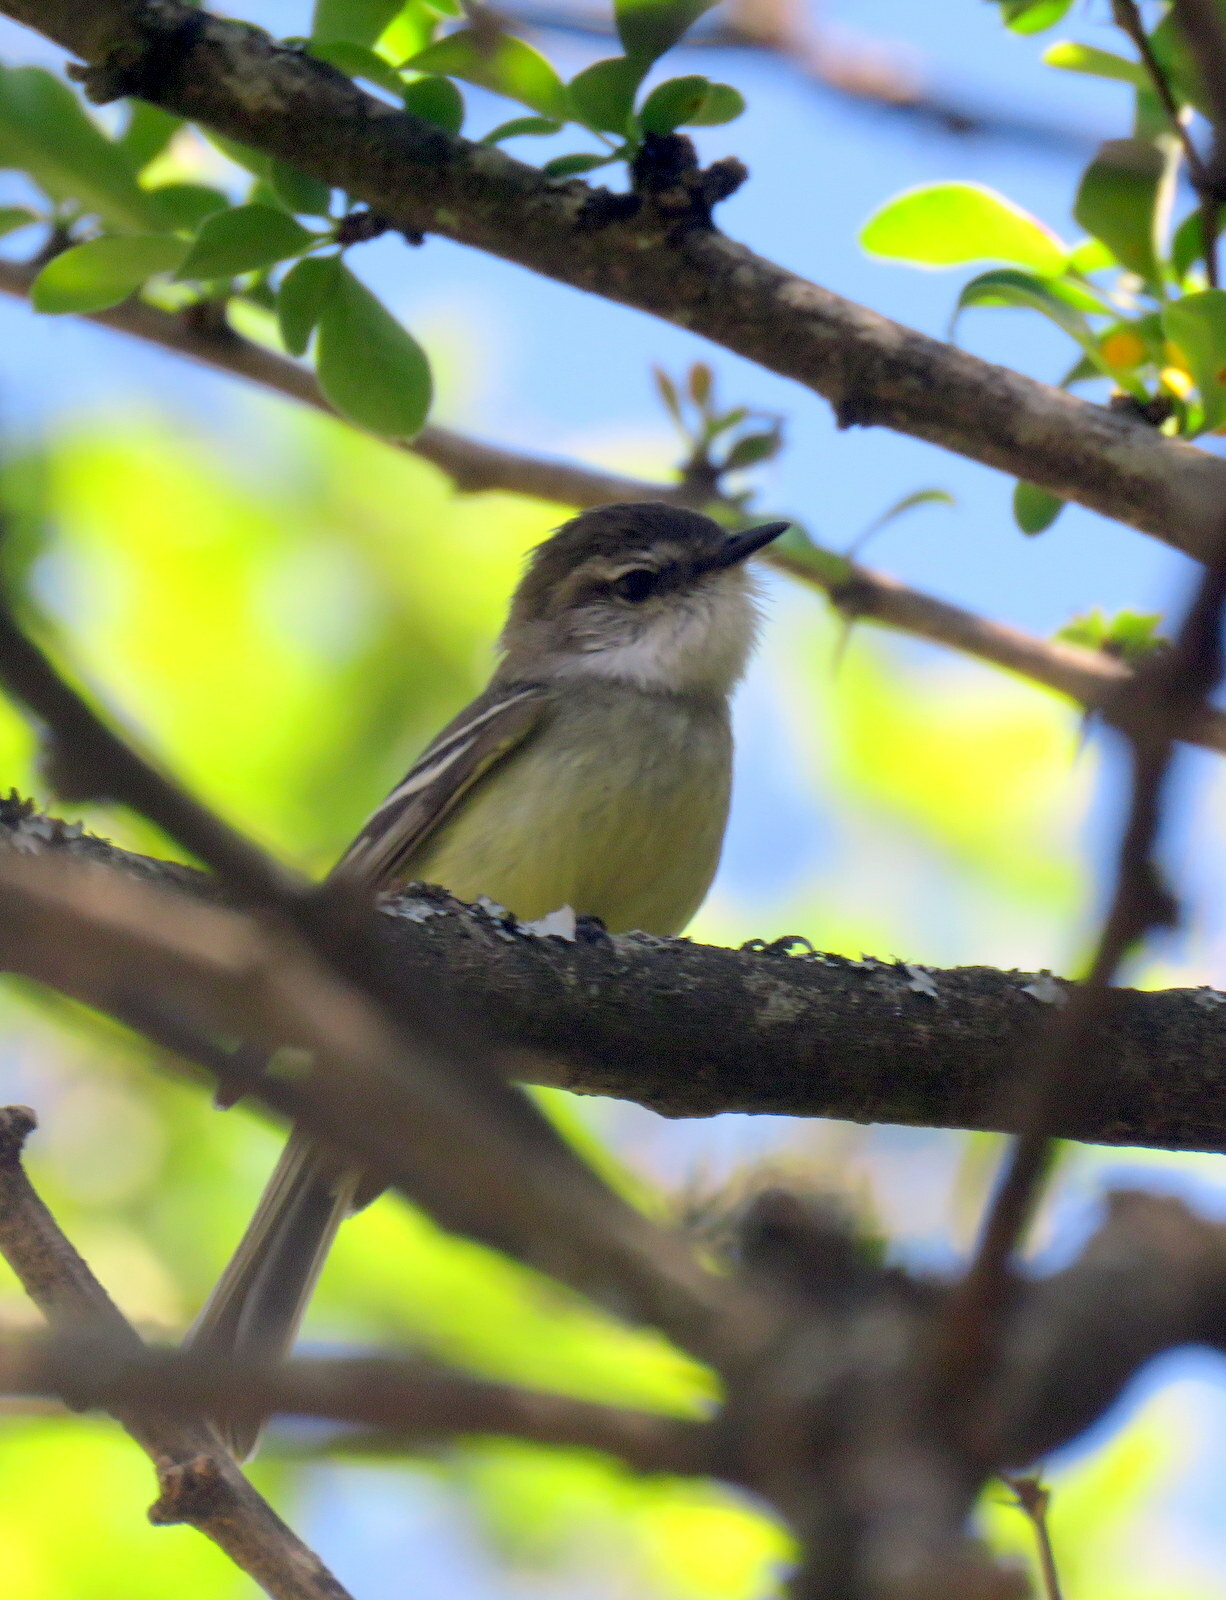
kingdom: Animalia
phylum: Chordata
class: Aves
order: Passeriformes
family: Tyrannidae
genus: Mecocerculus
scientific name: Mecocerculus leucophrys
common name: White-throated tyrannulet
